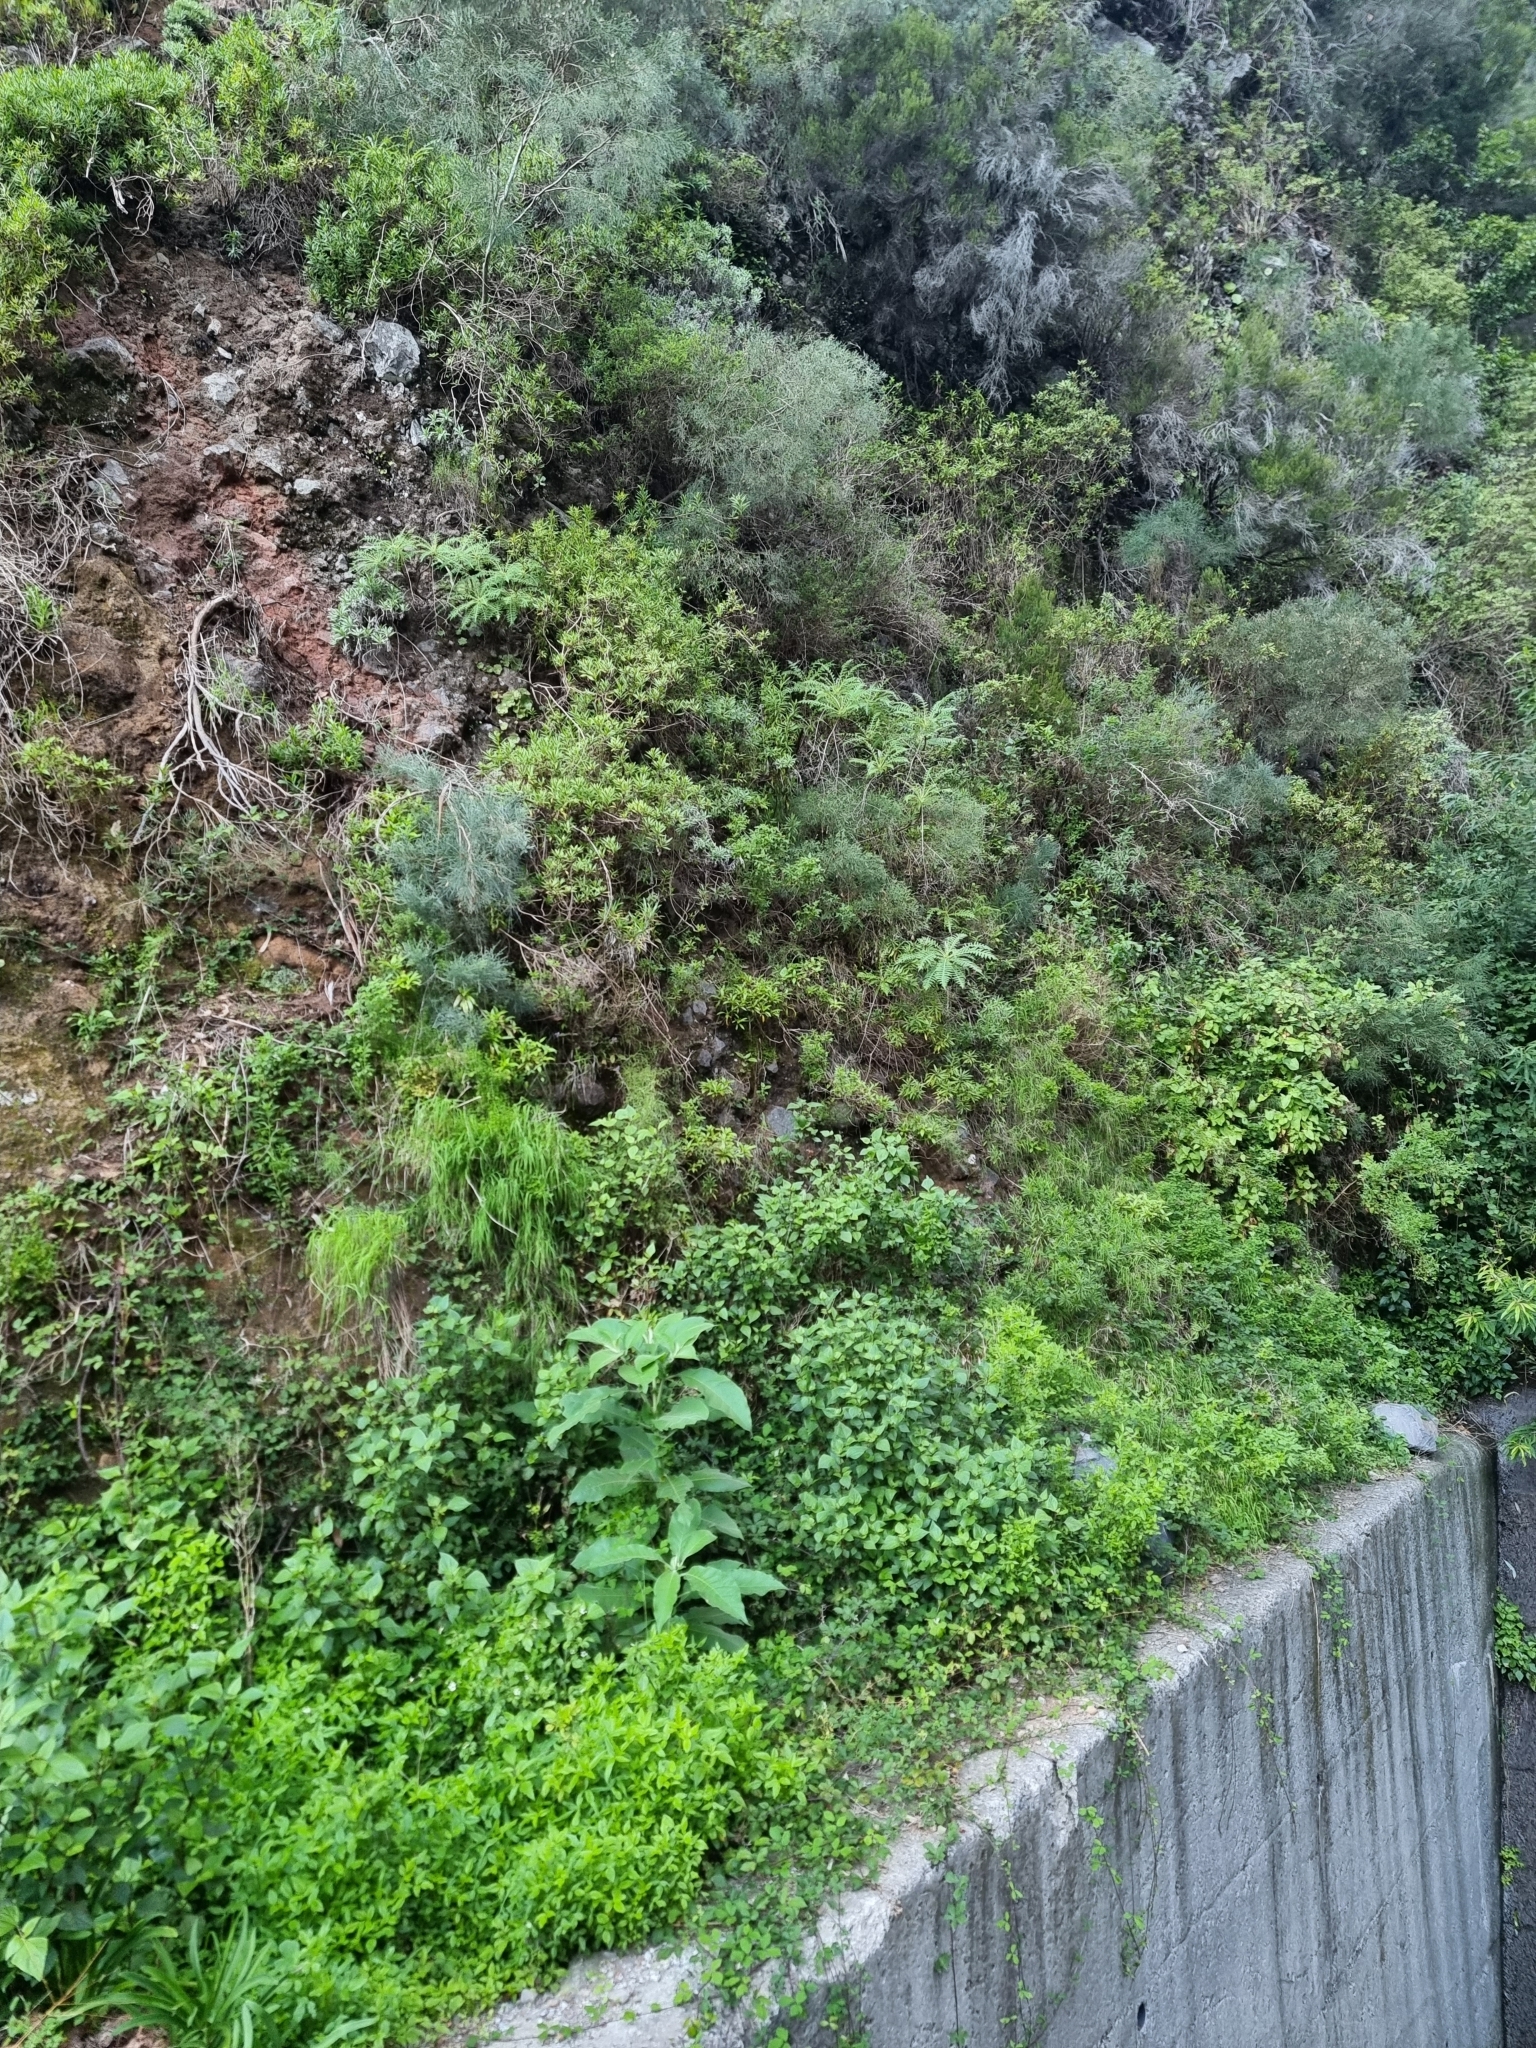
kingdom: Plantae
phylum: Tracheophyta
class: Magnoliopsida
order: Asterales
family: Asteraceae
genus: Sonchus
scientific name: Sonchus pinnatus
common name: Wing-leaved sow-thistle
